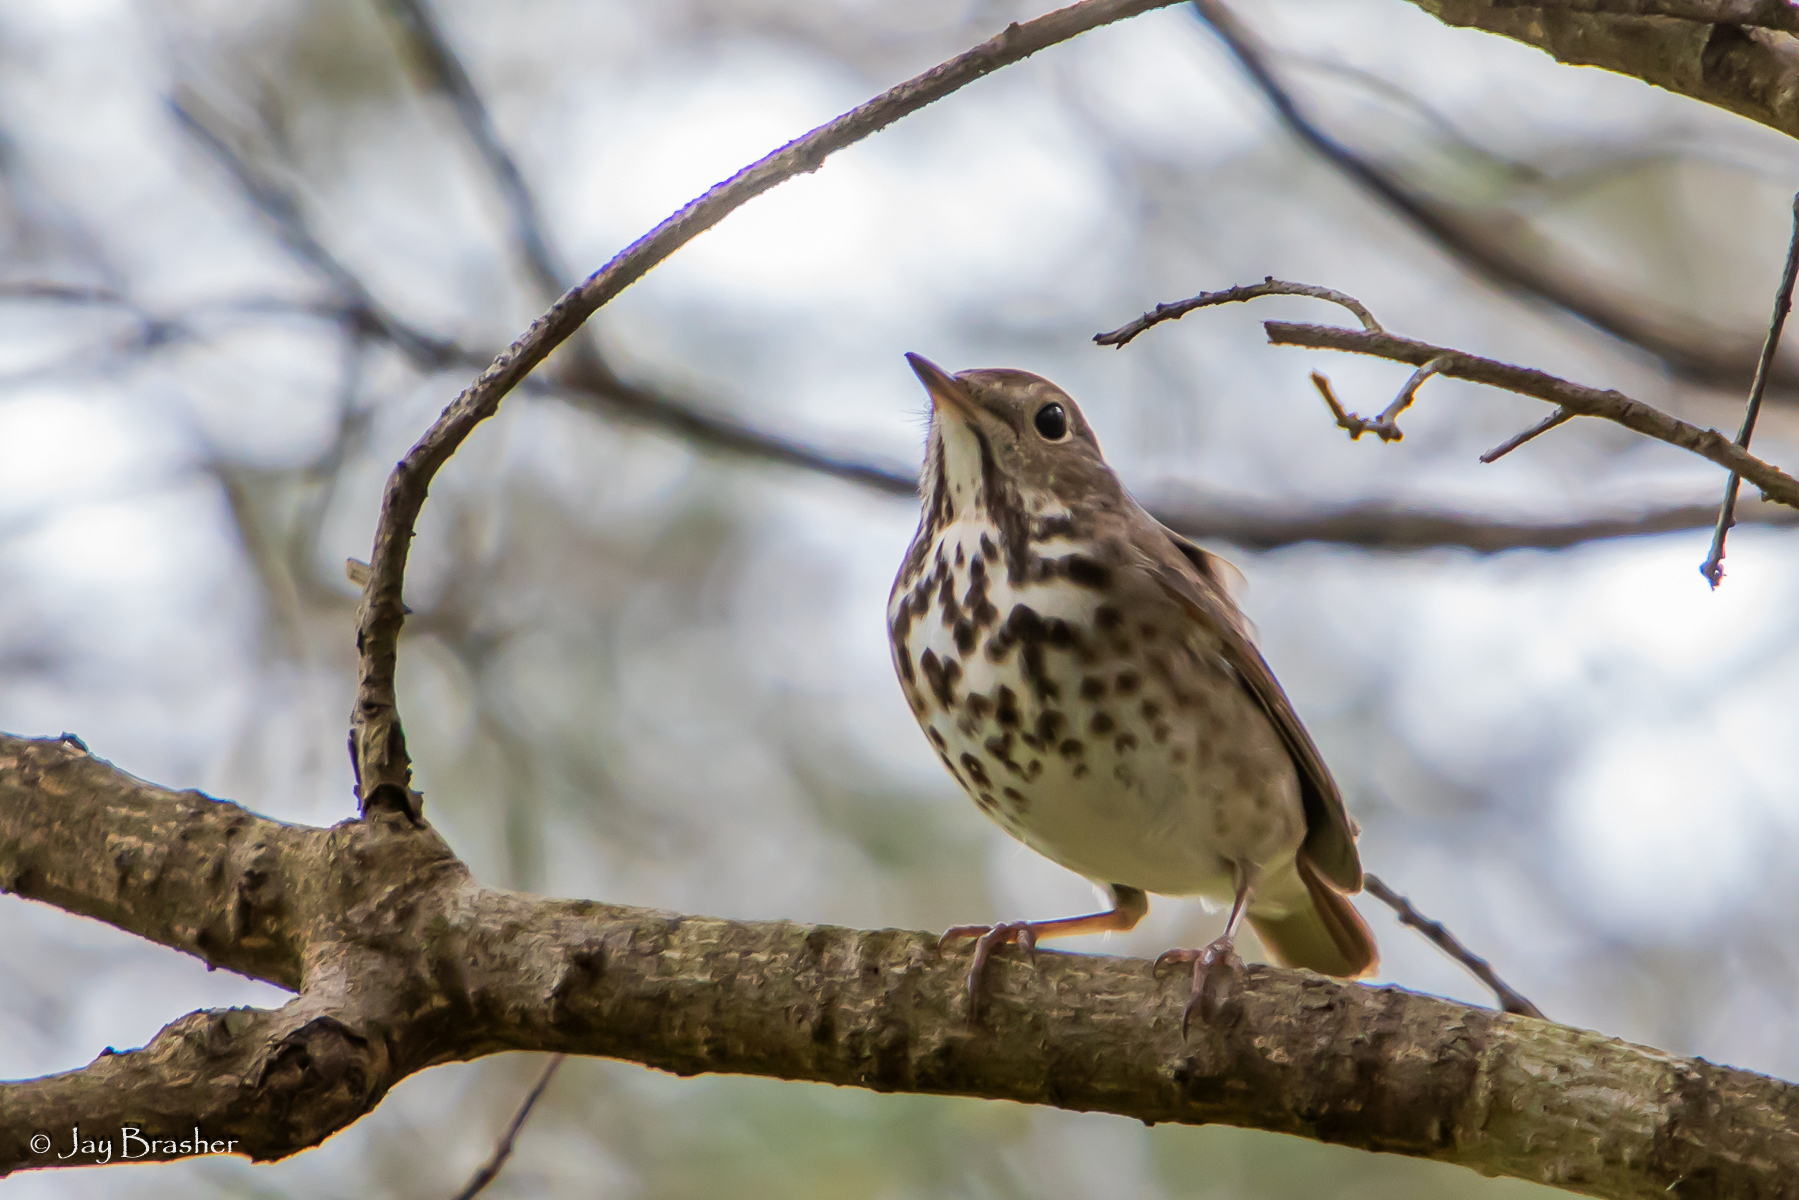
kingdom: Animalia
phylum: Chordata
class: Aves
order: Passeriformes
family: Turdidae
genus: Hylocichla
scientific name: Hylocichla mustelina
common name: Wood thrush
